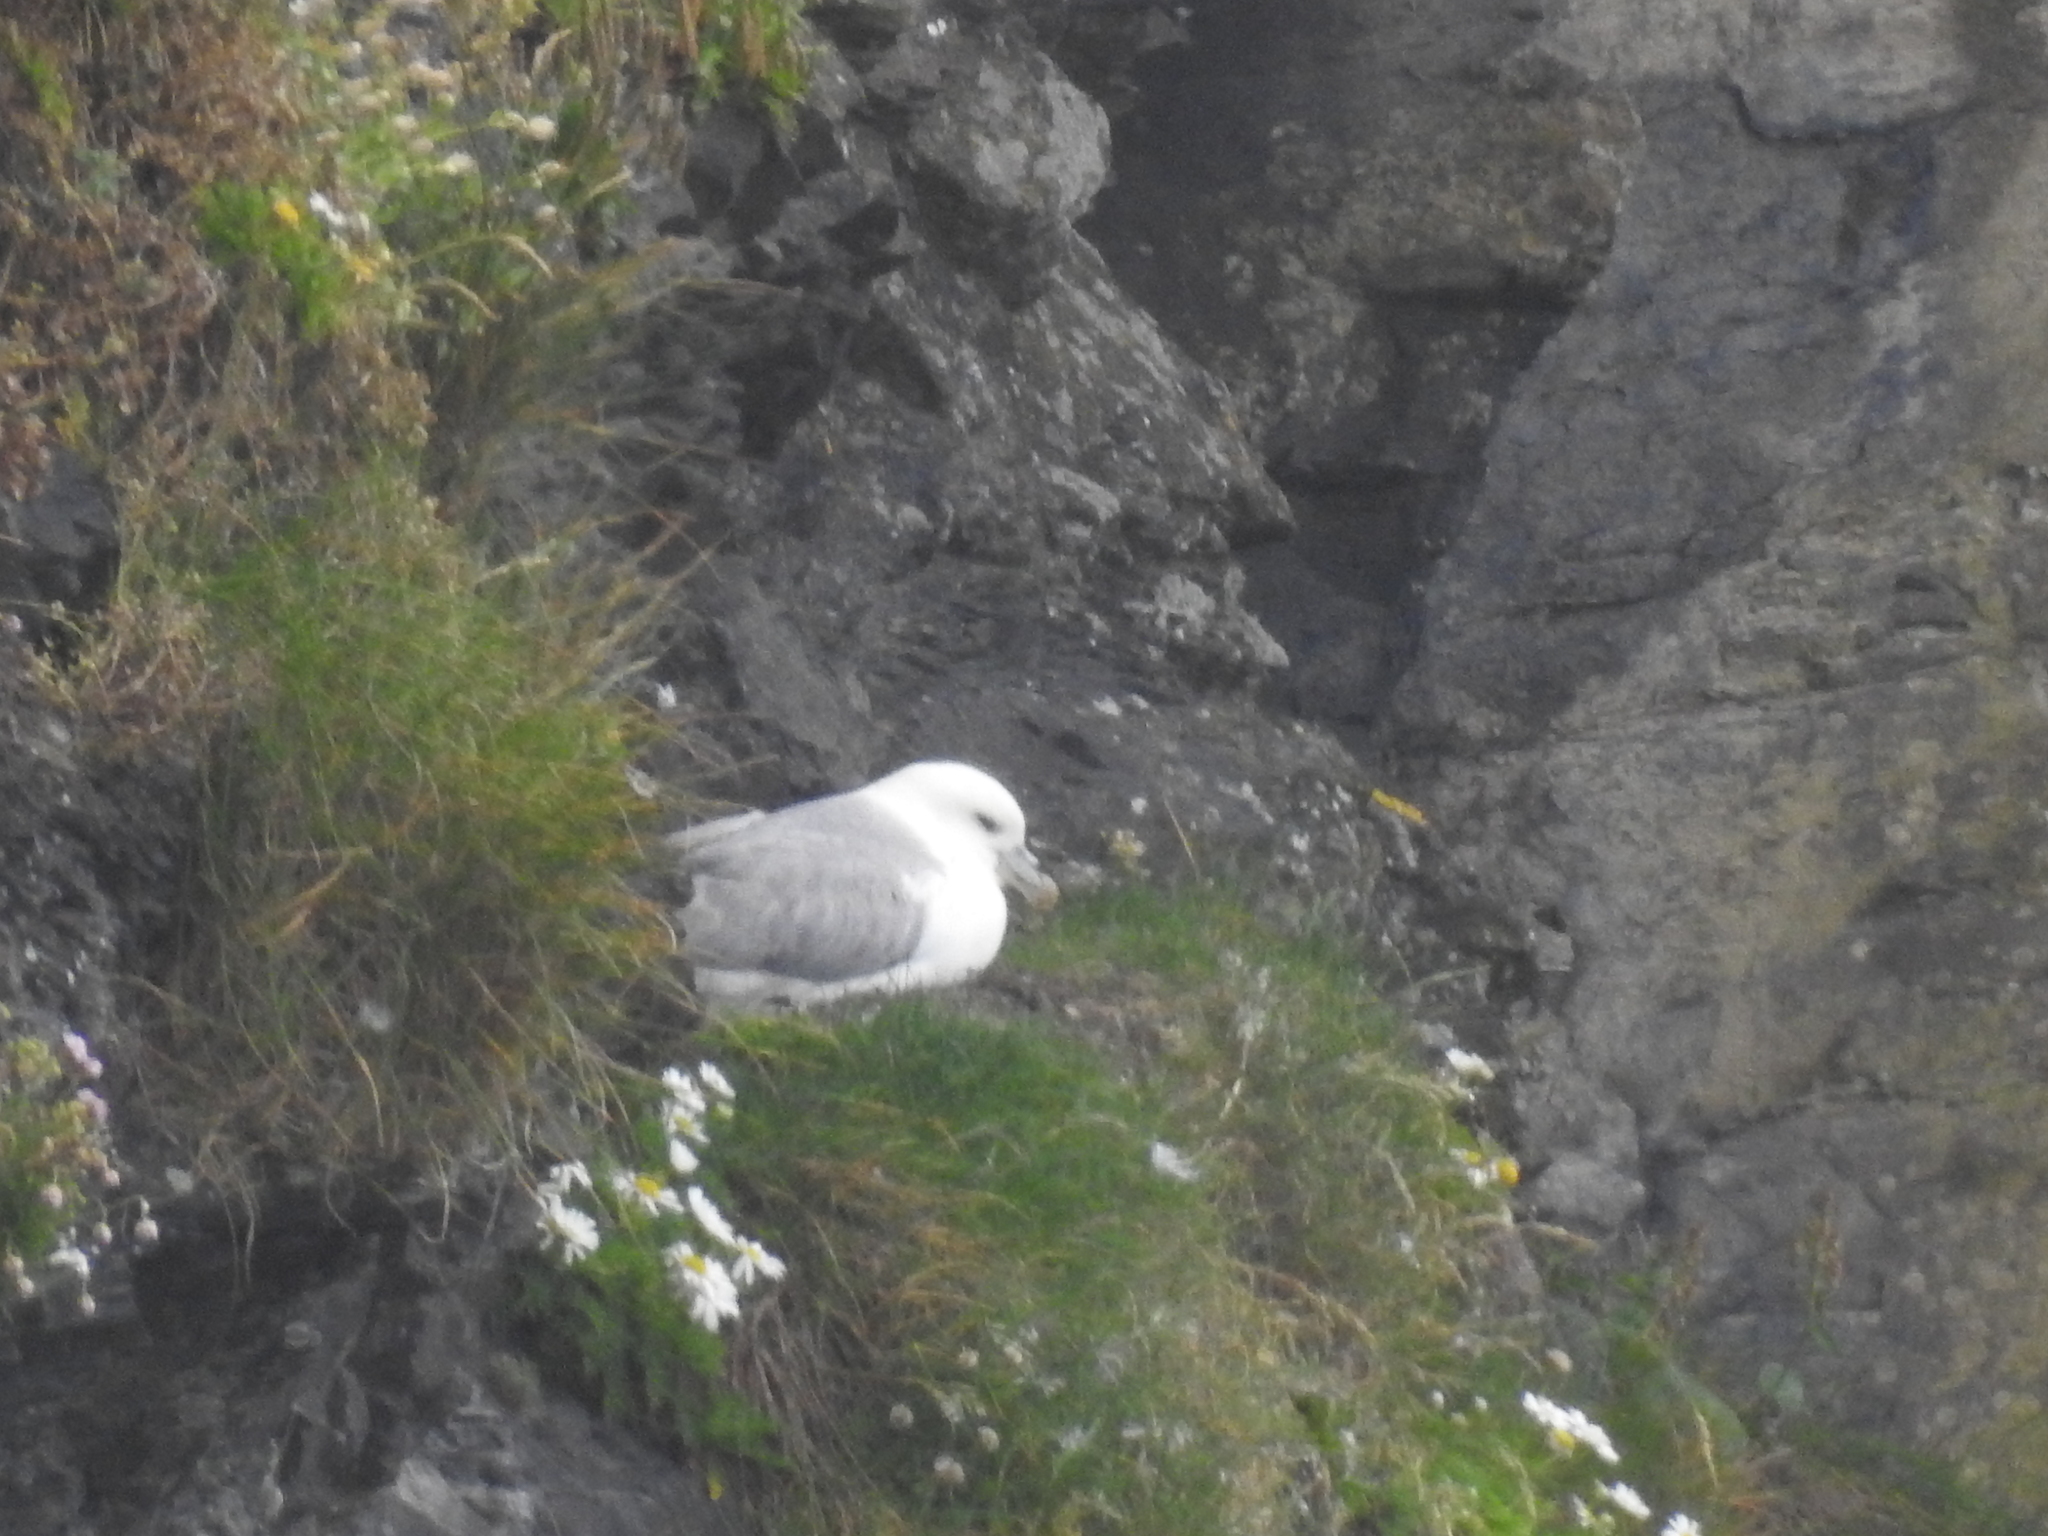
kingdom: Animalia
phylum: Chordata
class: Aves
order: Procellariiformes
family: Procellariidae
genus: Fulmarus
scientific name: Fulmarus glacialis
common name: Northern fulmar
